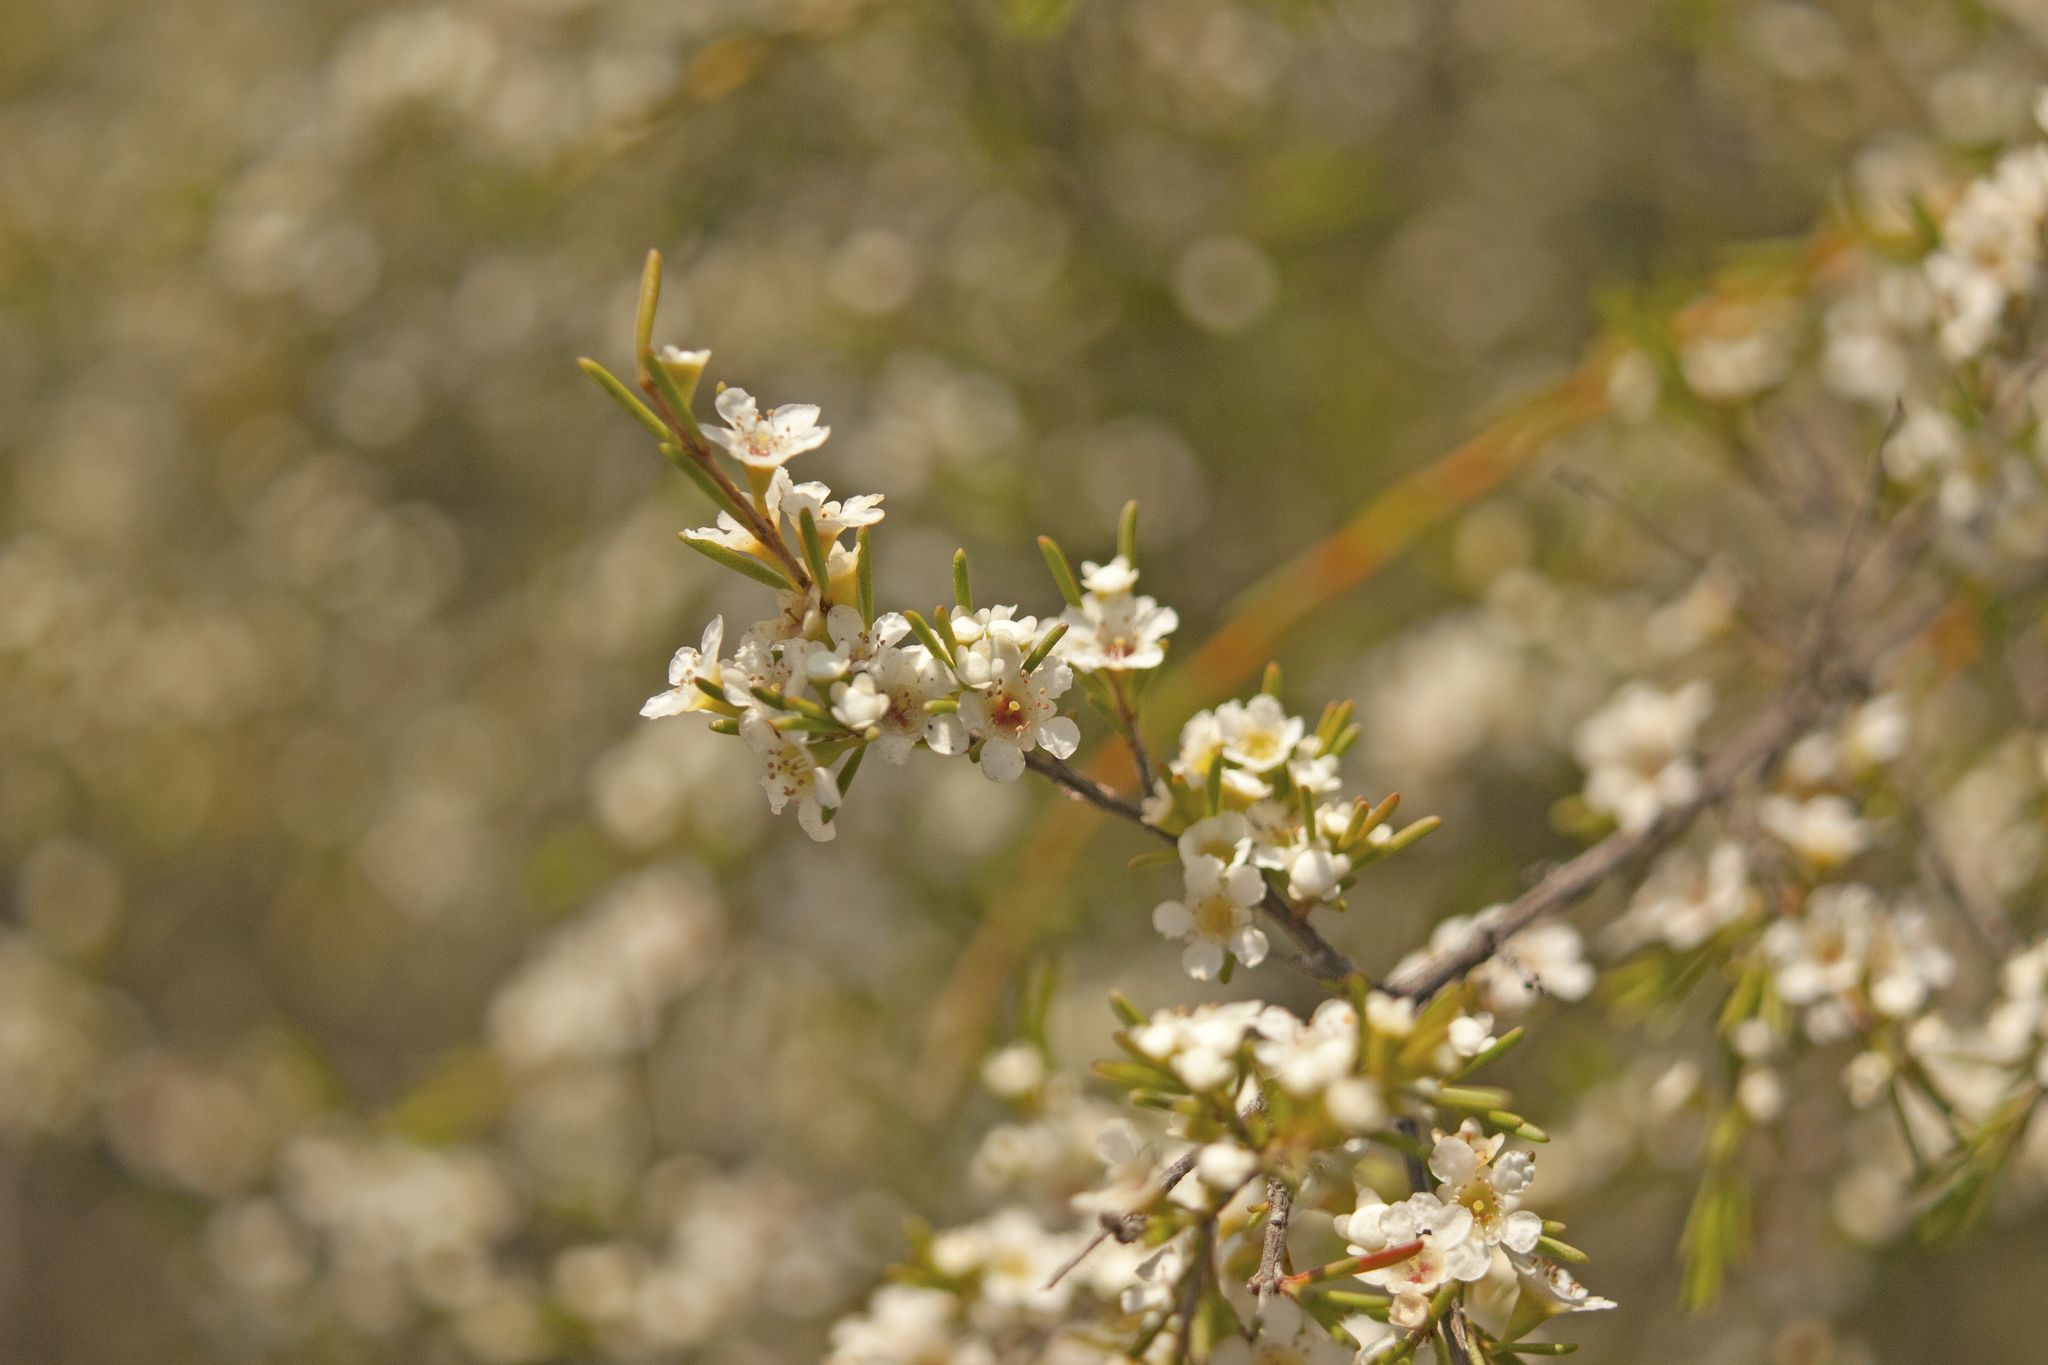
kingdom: Plantae
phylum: Tracheophyta
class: Magnoliopsida
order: Myrtales
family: Myrtaceae
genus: Baeckea
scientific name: Baeckea frutescens
